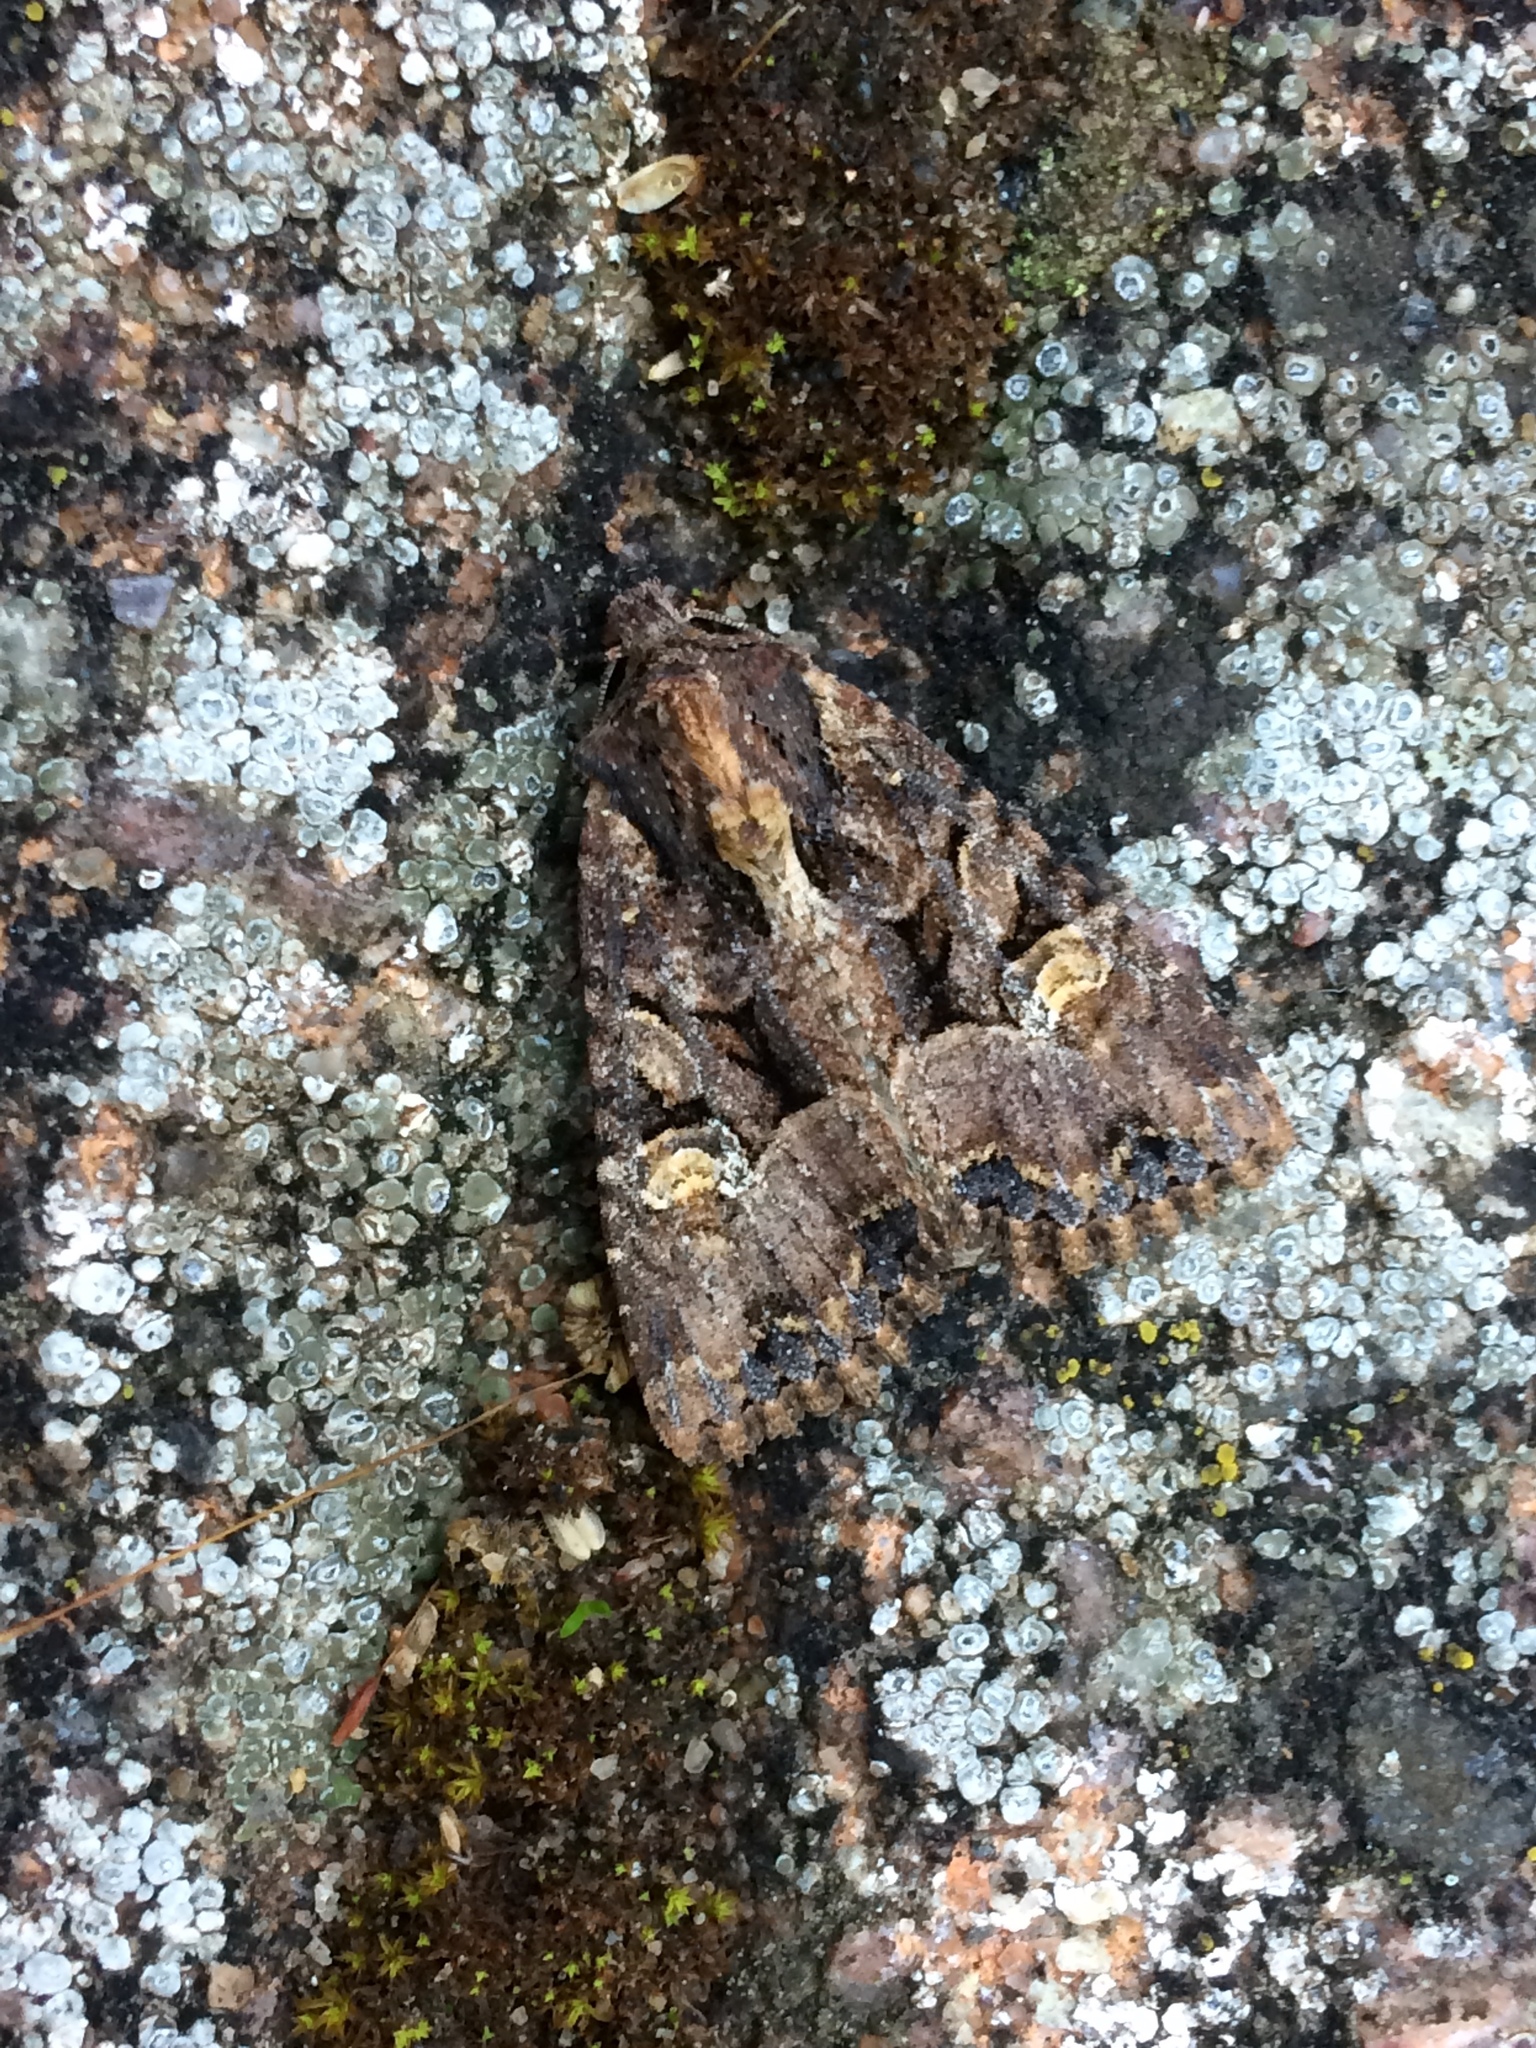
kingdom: Animalia
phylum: Arthropoda
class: Insecta
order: Lepidoptera
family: Noctuidae
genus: Mesapamea
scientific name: Mesapamea
